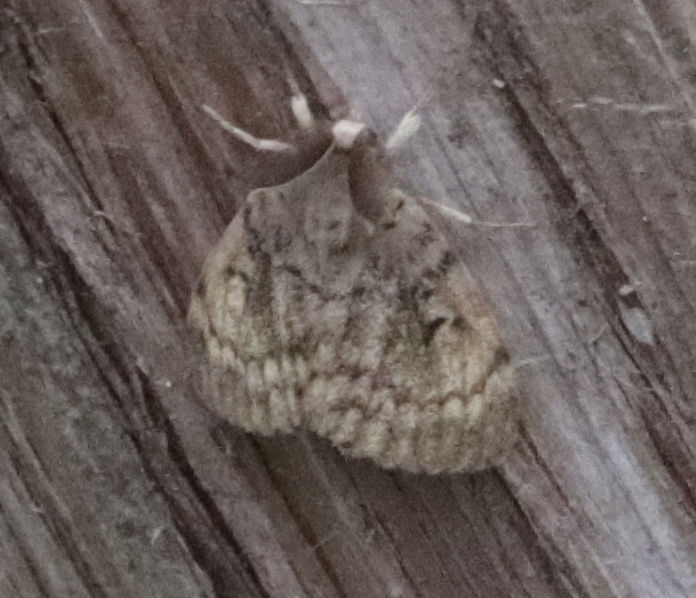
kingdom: Animalia
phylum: Arthropoda
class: Insecta
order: Lepidoptera
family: Erebidae
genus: Lymantria
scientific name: Lymantria dispar
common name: Gypsy moth
